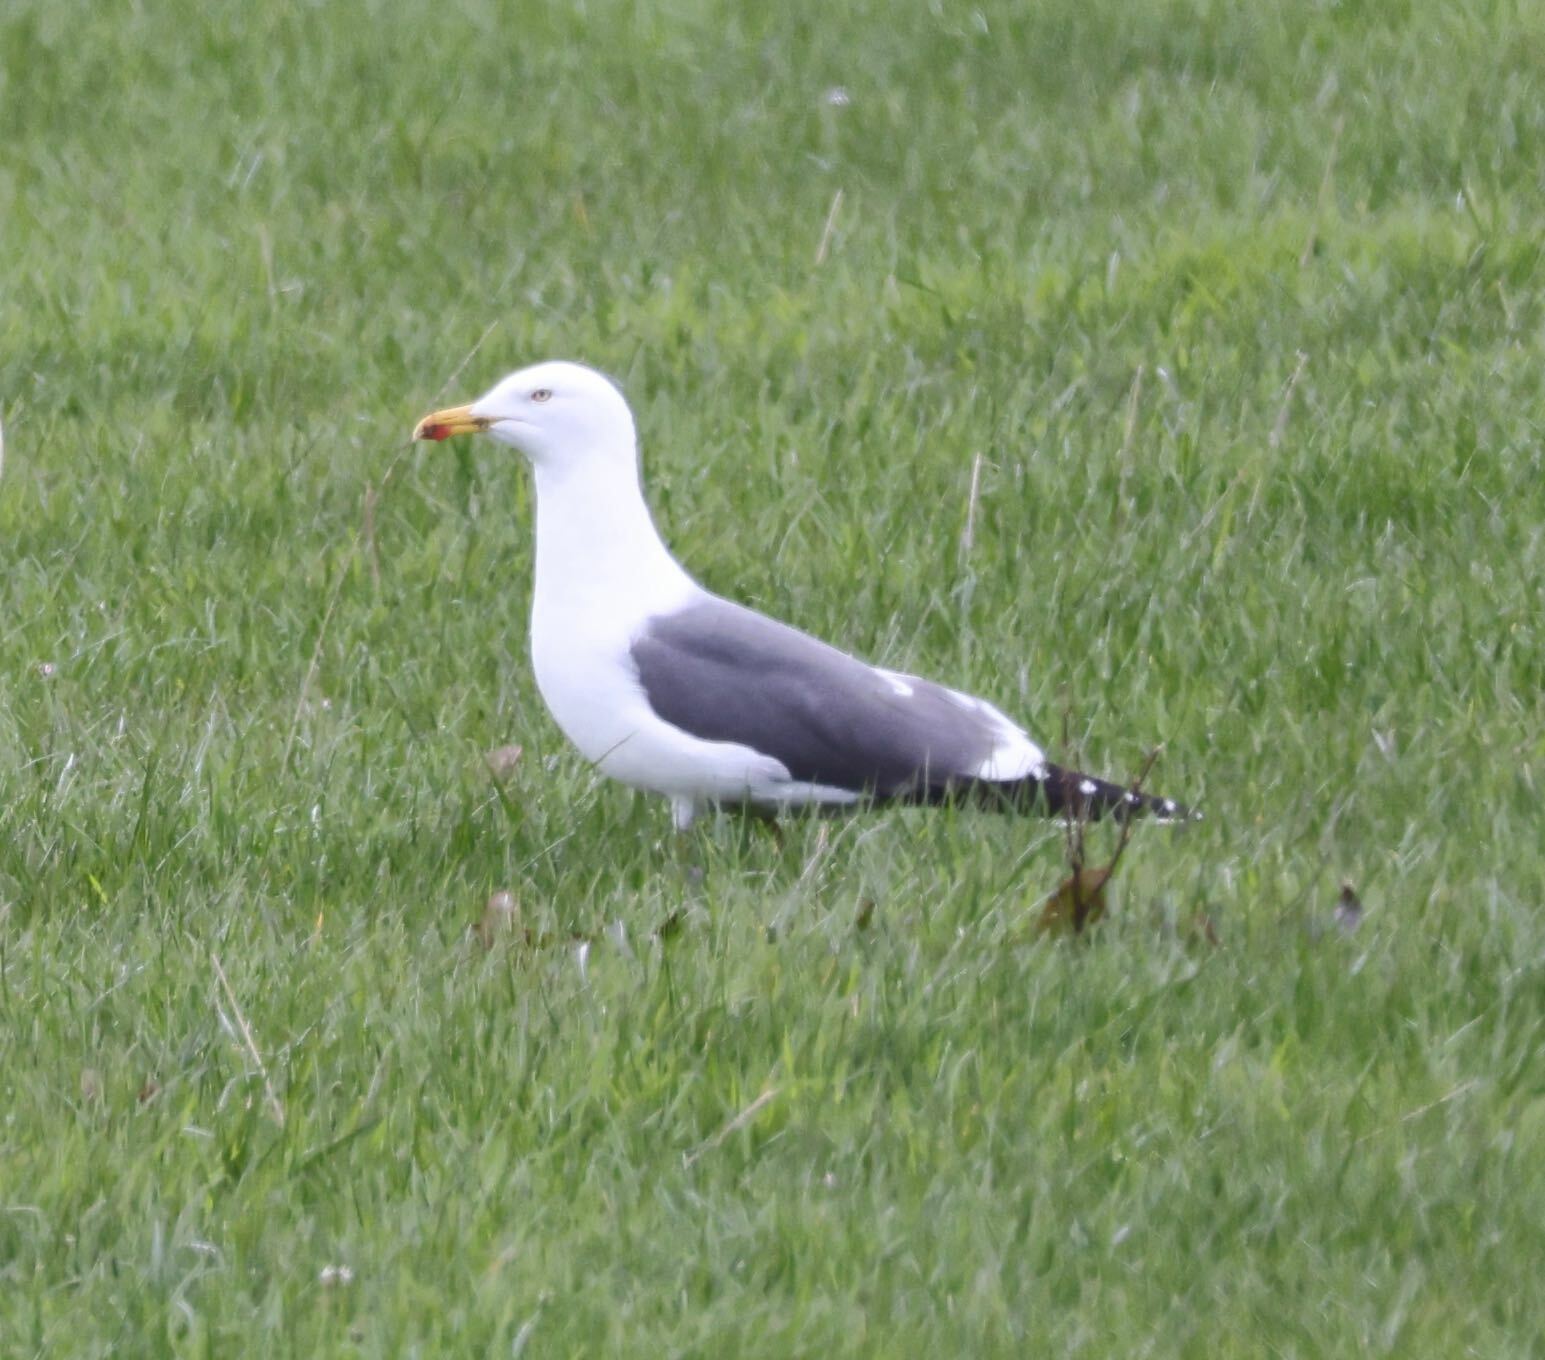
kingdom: Animalia
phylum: Chordata
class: Aves
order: Charadriiformes
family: Laridae
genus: Larus
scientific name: Larus fuscus
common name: Lesser black-backed gull
